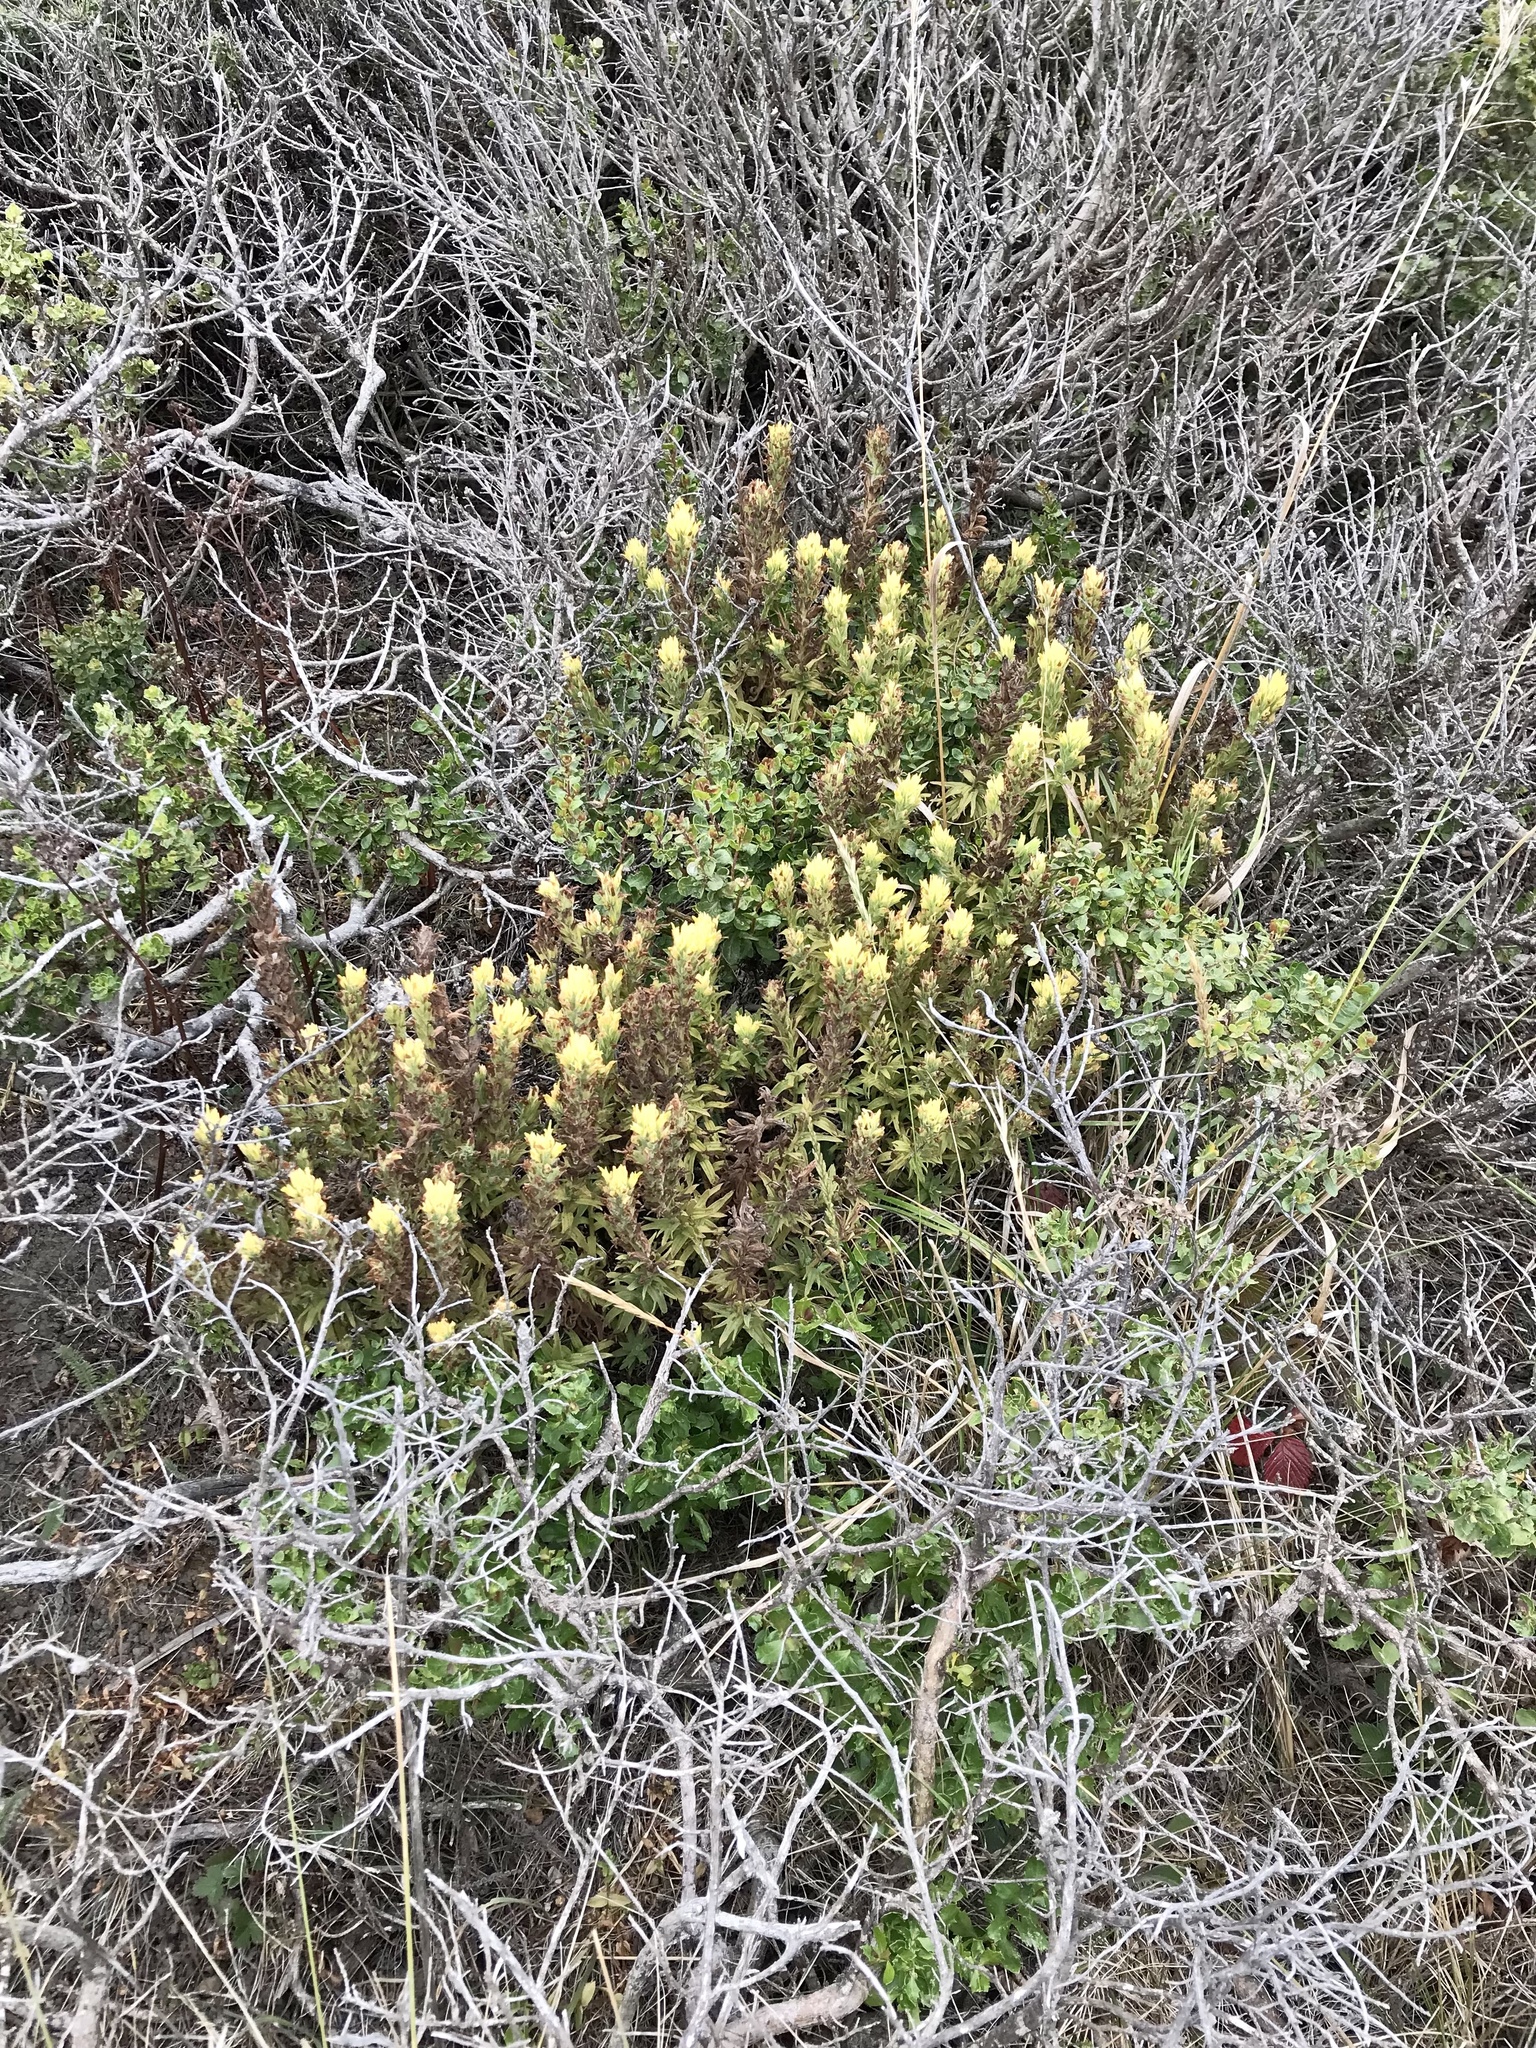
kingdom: Plantae
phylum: Tracheophyta
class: Magnoliopsida
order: Lamiales
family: Orobanchaceae
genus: Castilleja
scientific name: Castilleja wightii
